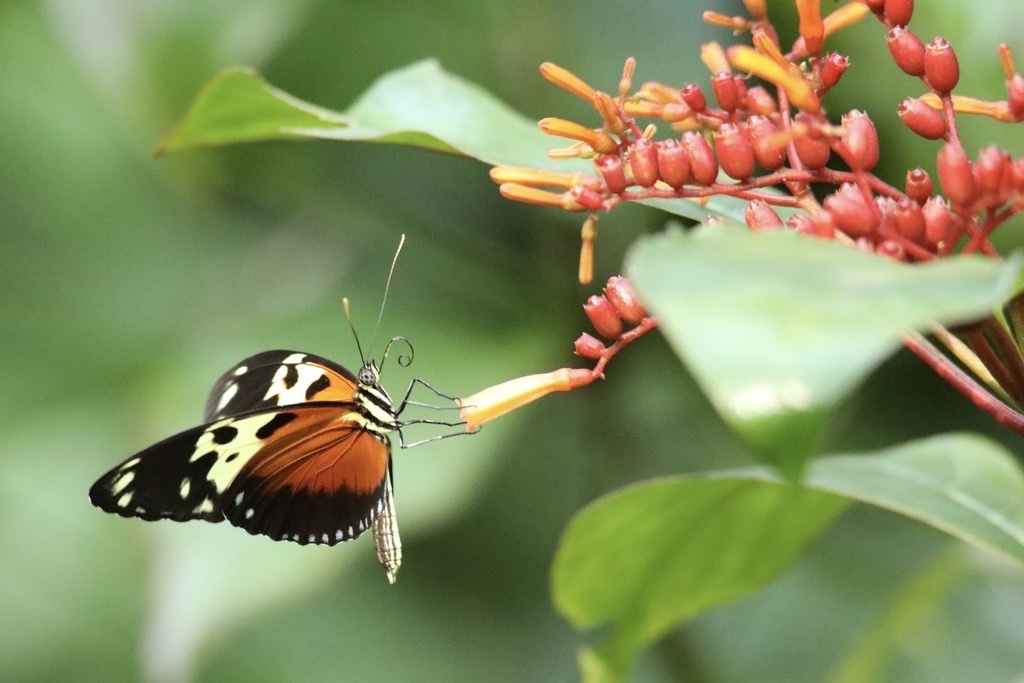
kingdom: Animalia
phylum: Arthropoda
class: Insecta
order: Lepidoptera
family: Nymphalidae
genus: Heliconius
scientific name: Heliconius hecale
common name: Tiger longwing
